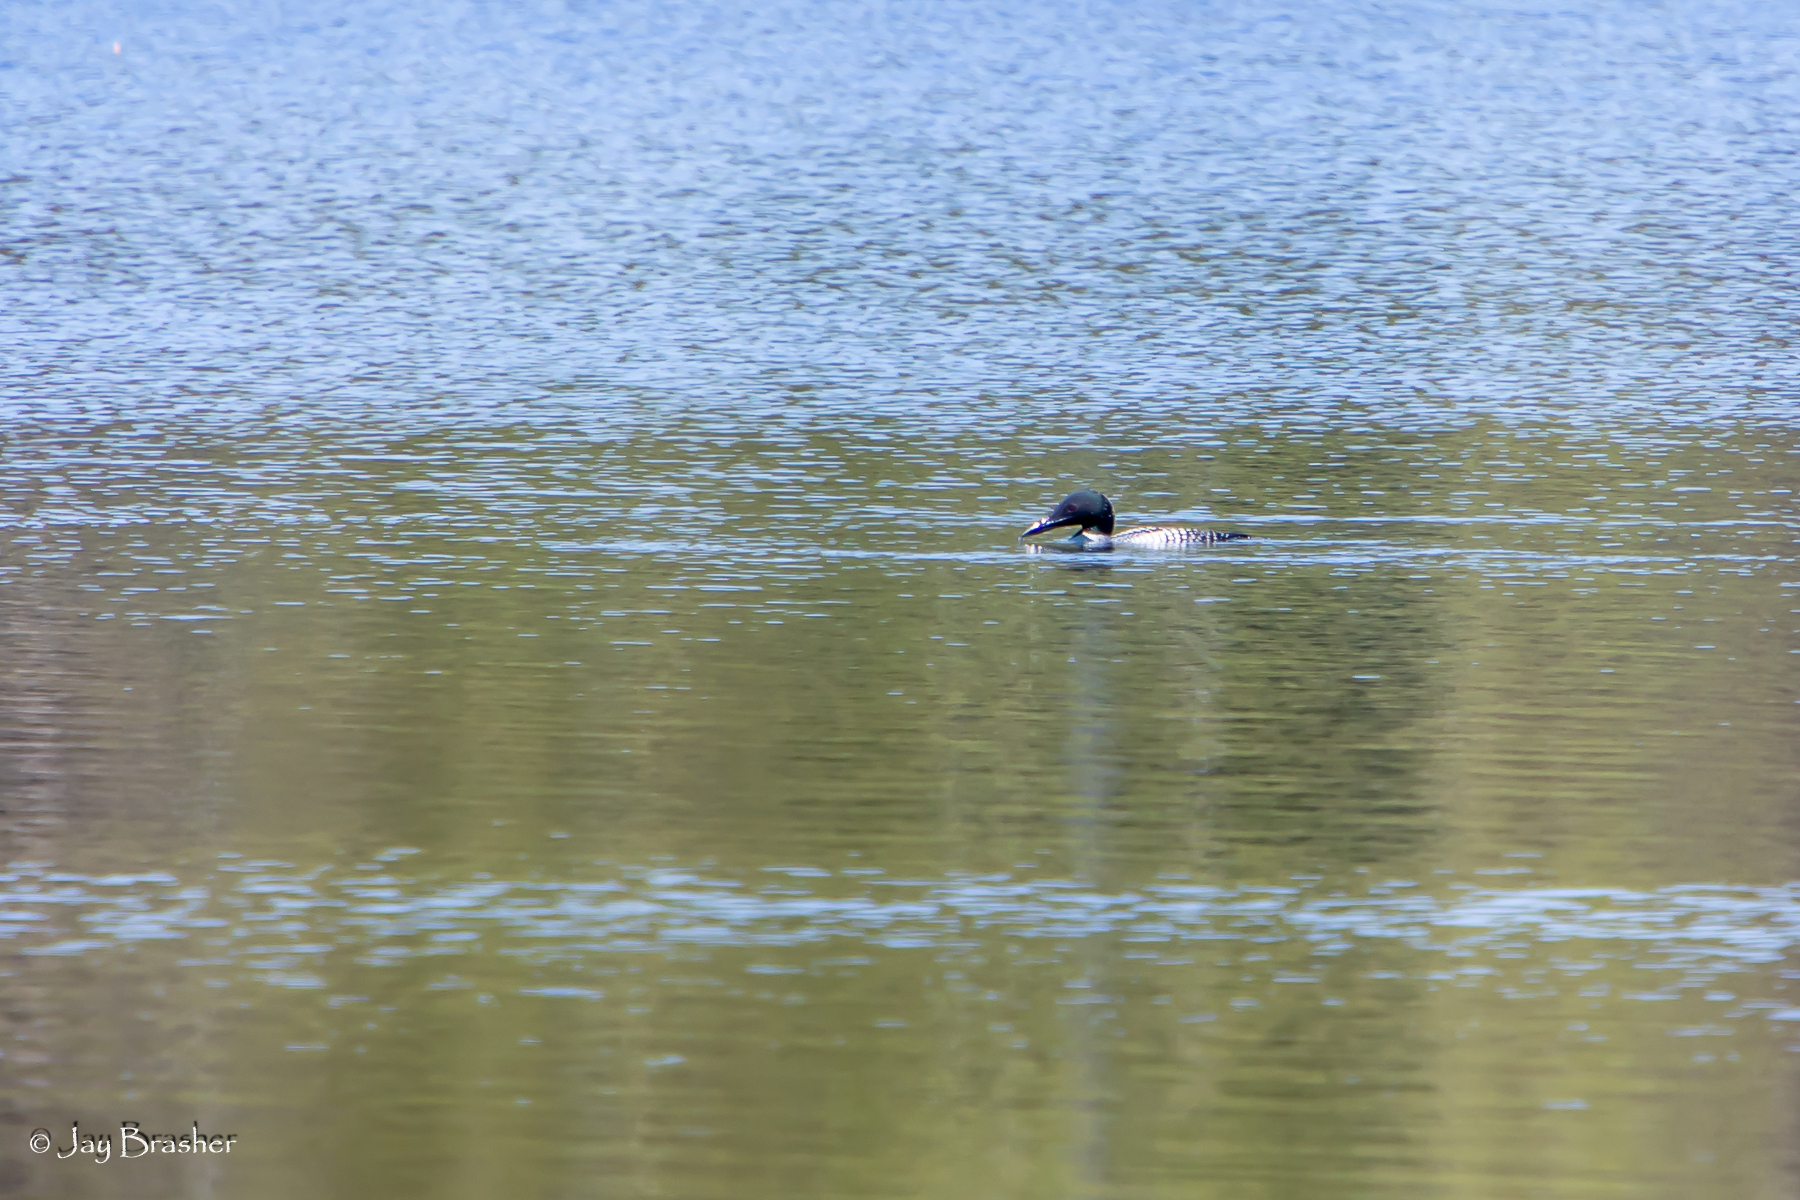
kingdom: Animalia
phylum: Chordata
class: Aves
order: Gaviiformes
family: Gaviidae
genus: Gavia
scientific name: Gavia immer
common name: Common loon
